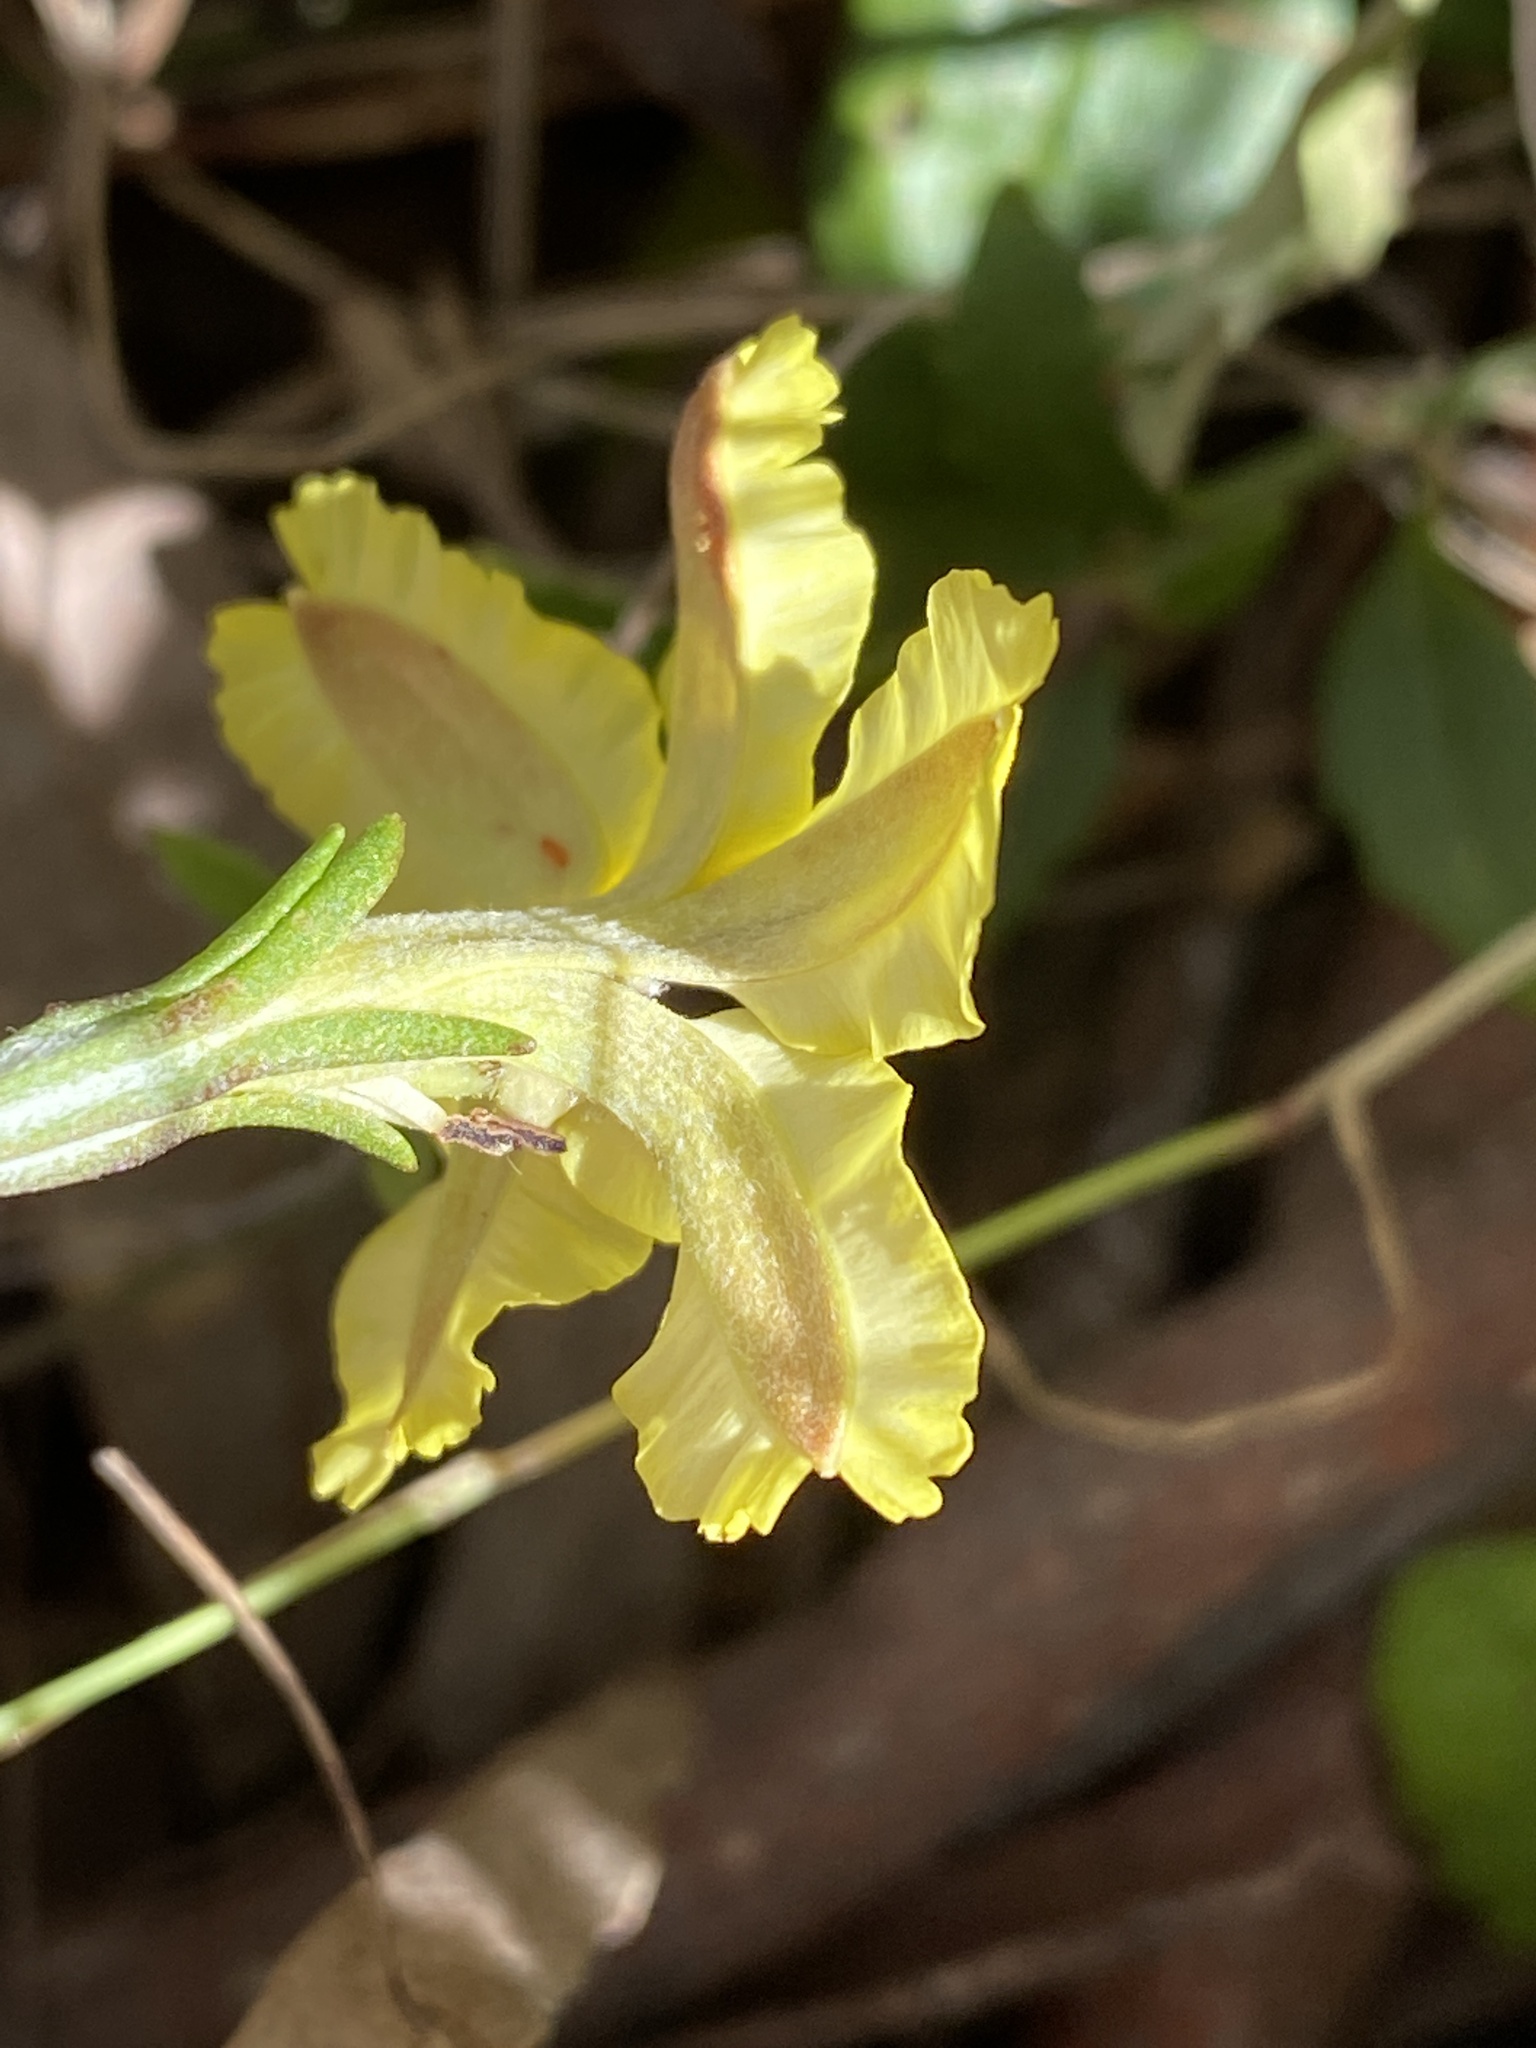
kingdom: Plantae
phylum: Tracheophyta
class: Magnoliopsida
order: Asterales
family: Goodeniaceae
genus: Goodenia
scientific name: Goodenia hederacea
